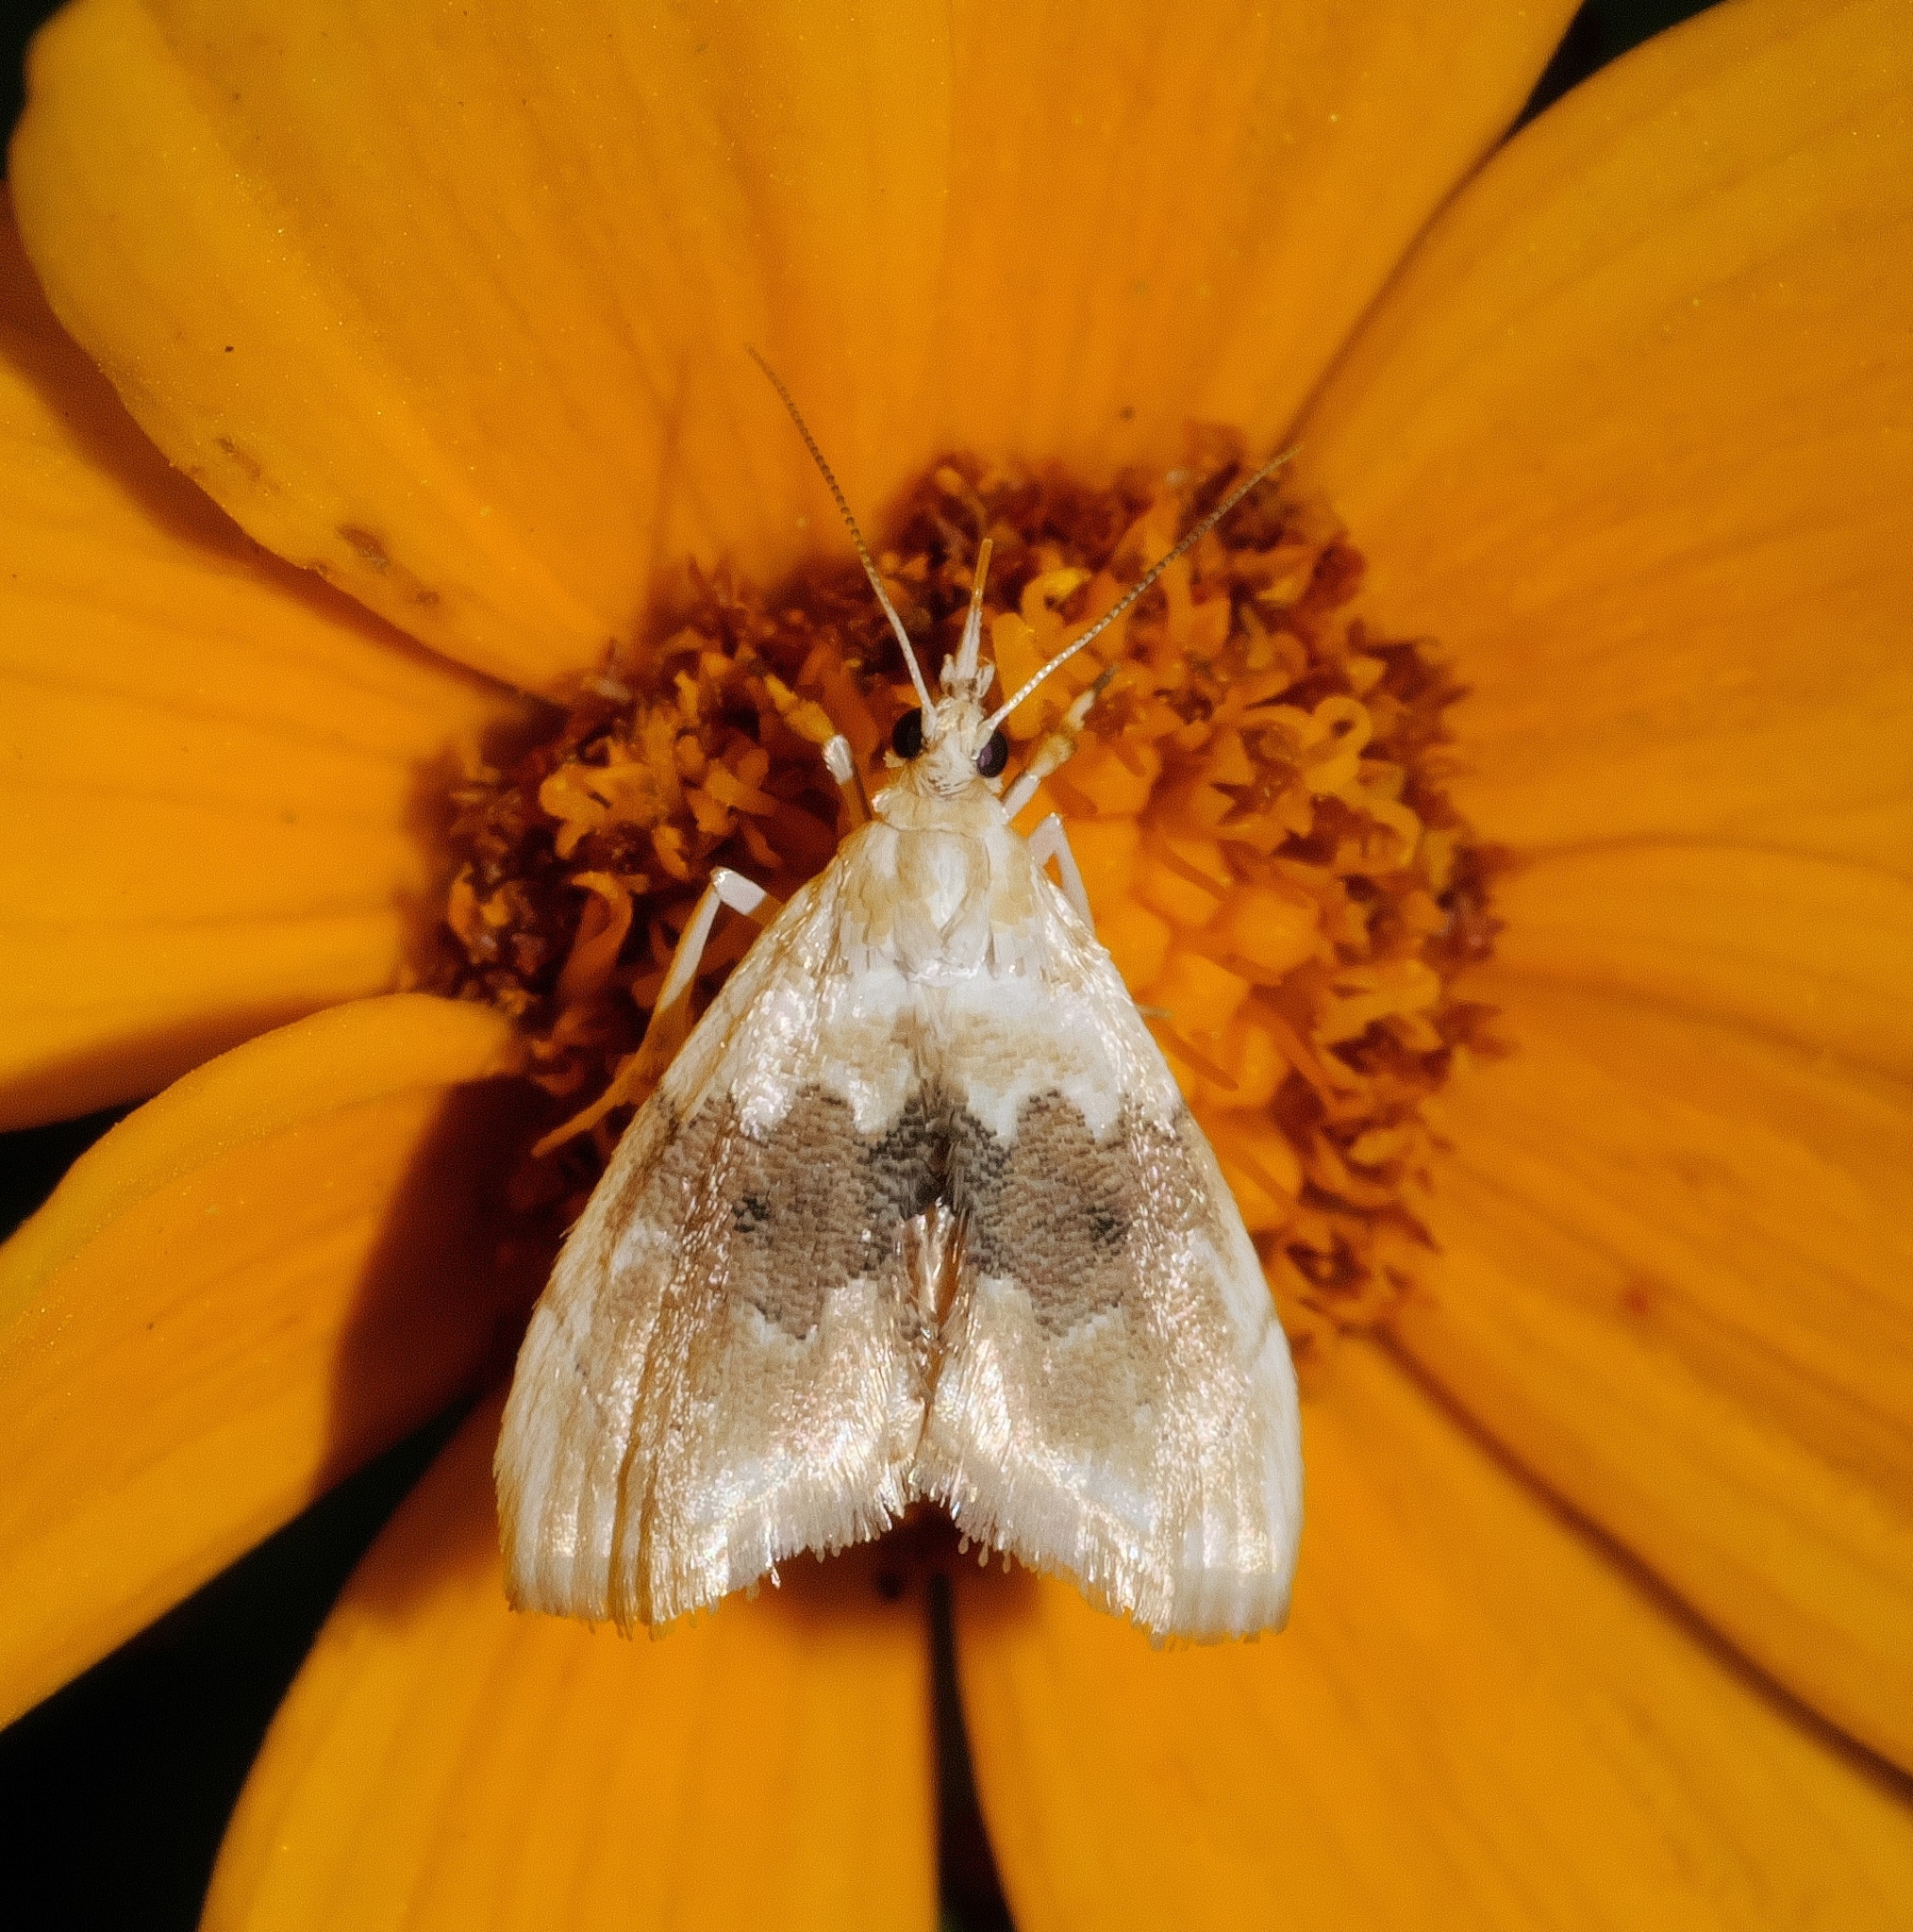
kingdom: Animalia
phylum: Arthropoda
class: Insecta
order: Lepidoptera
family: Crambidae
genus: Lipocosma
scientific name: Lipocosma sicalis
